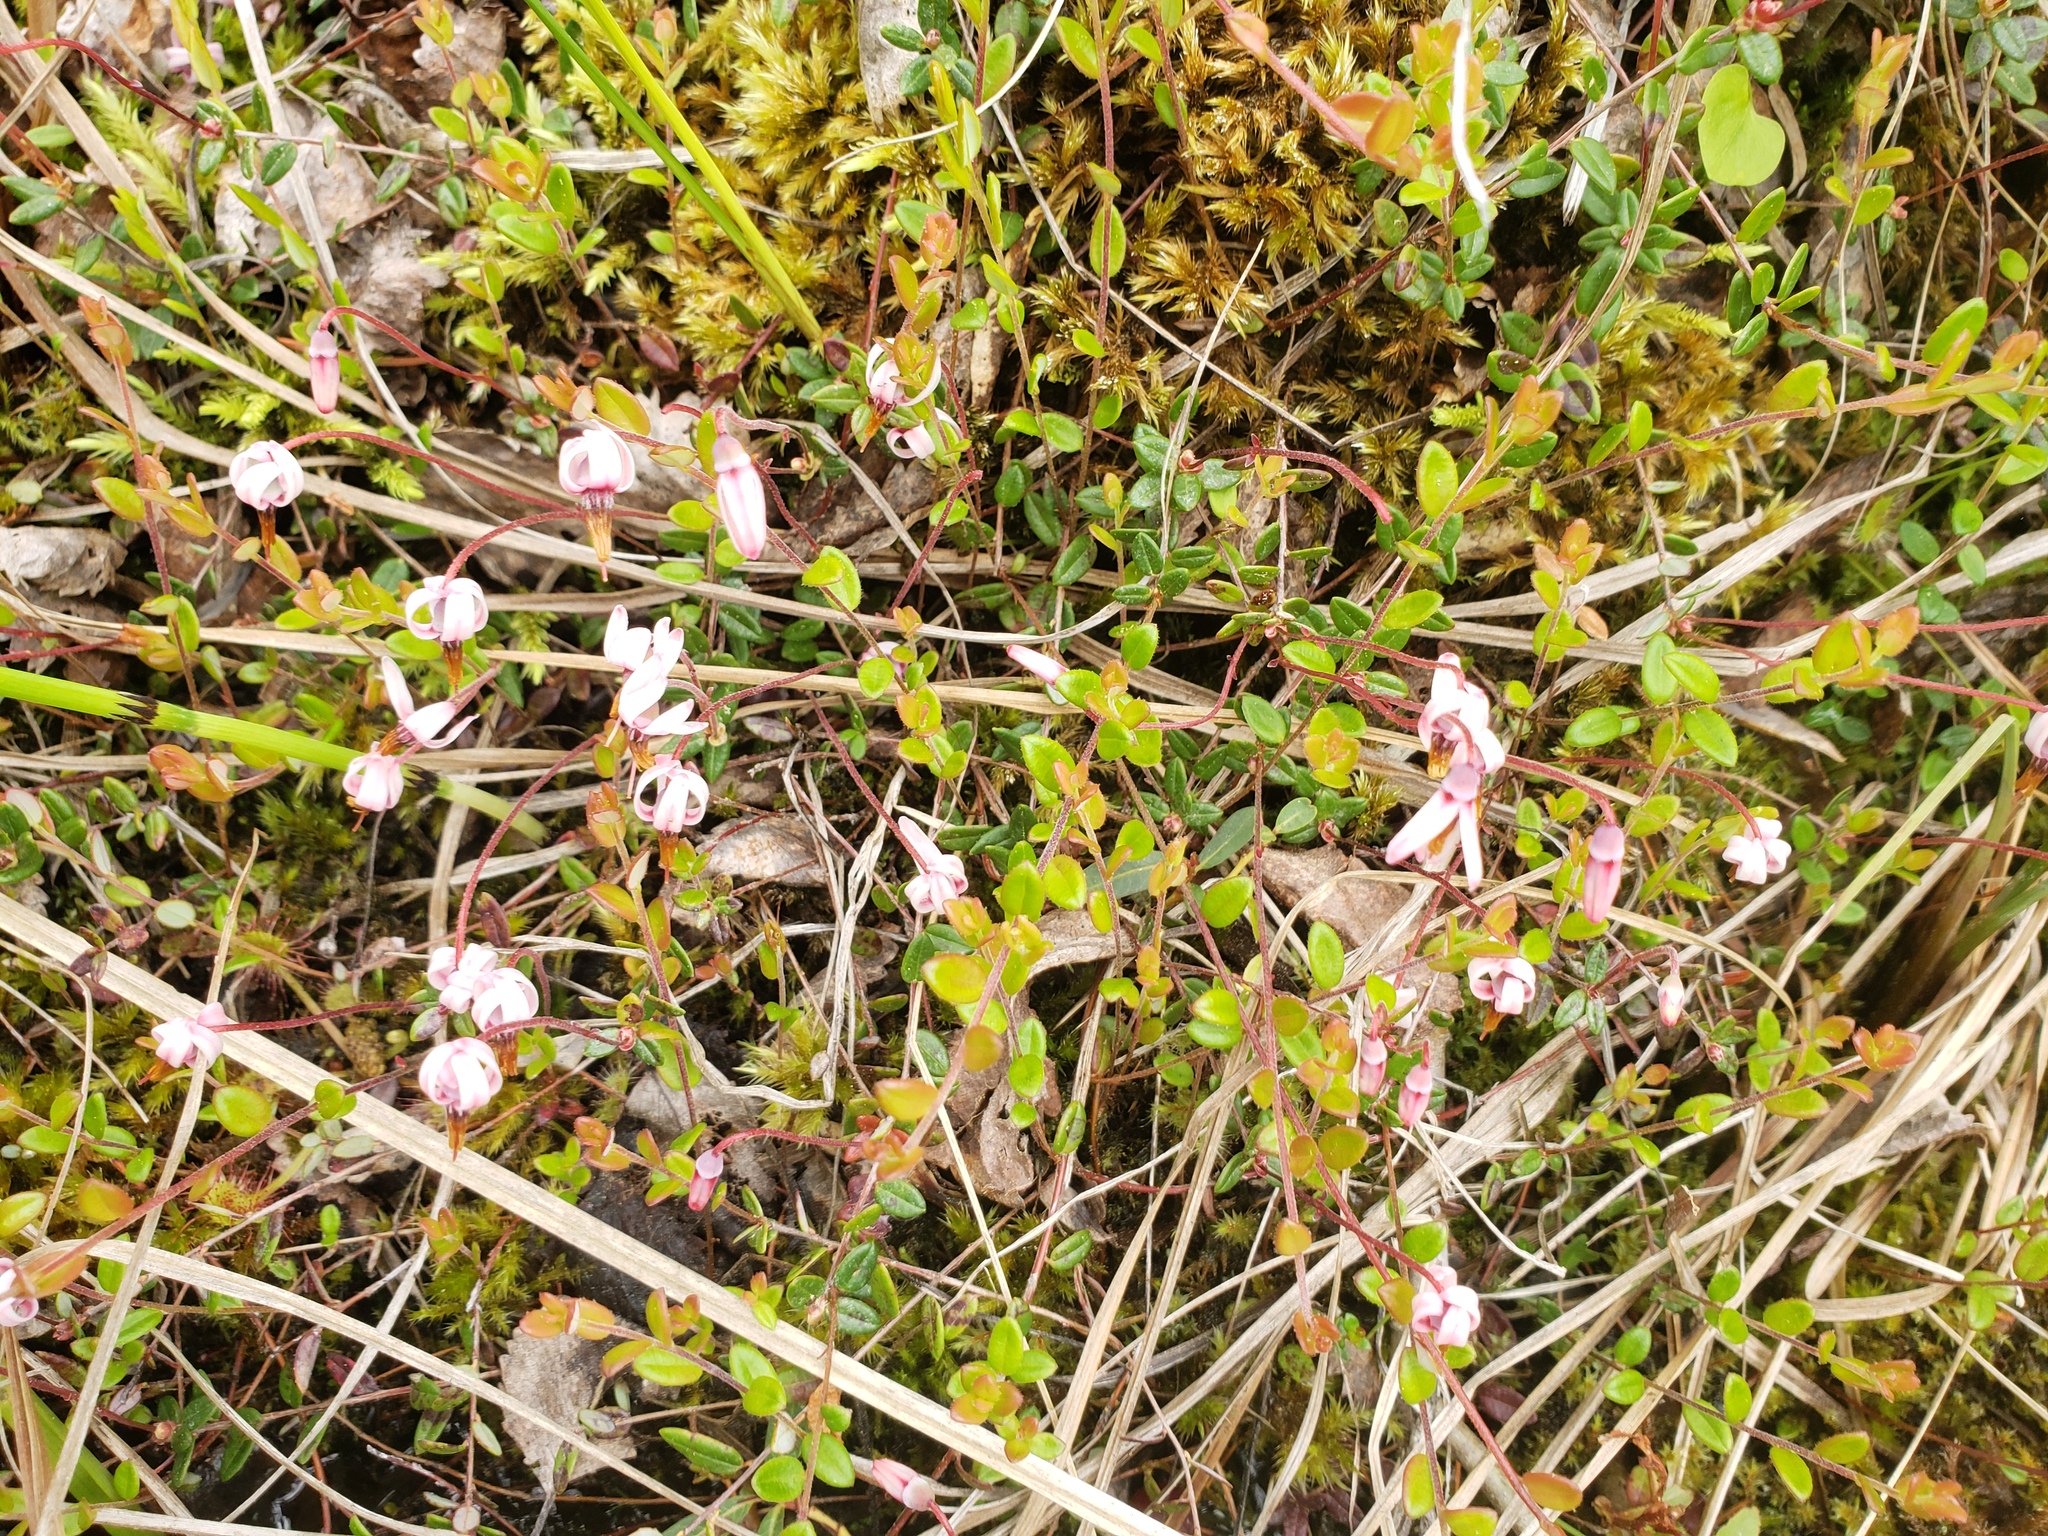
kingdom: Plantae
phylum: Tracheophyta
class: Magnoliopsida
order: Ericales
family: Ericaceae
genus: Vaccinium
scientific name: Vaccinium oxycoccos
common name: Cranberry
